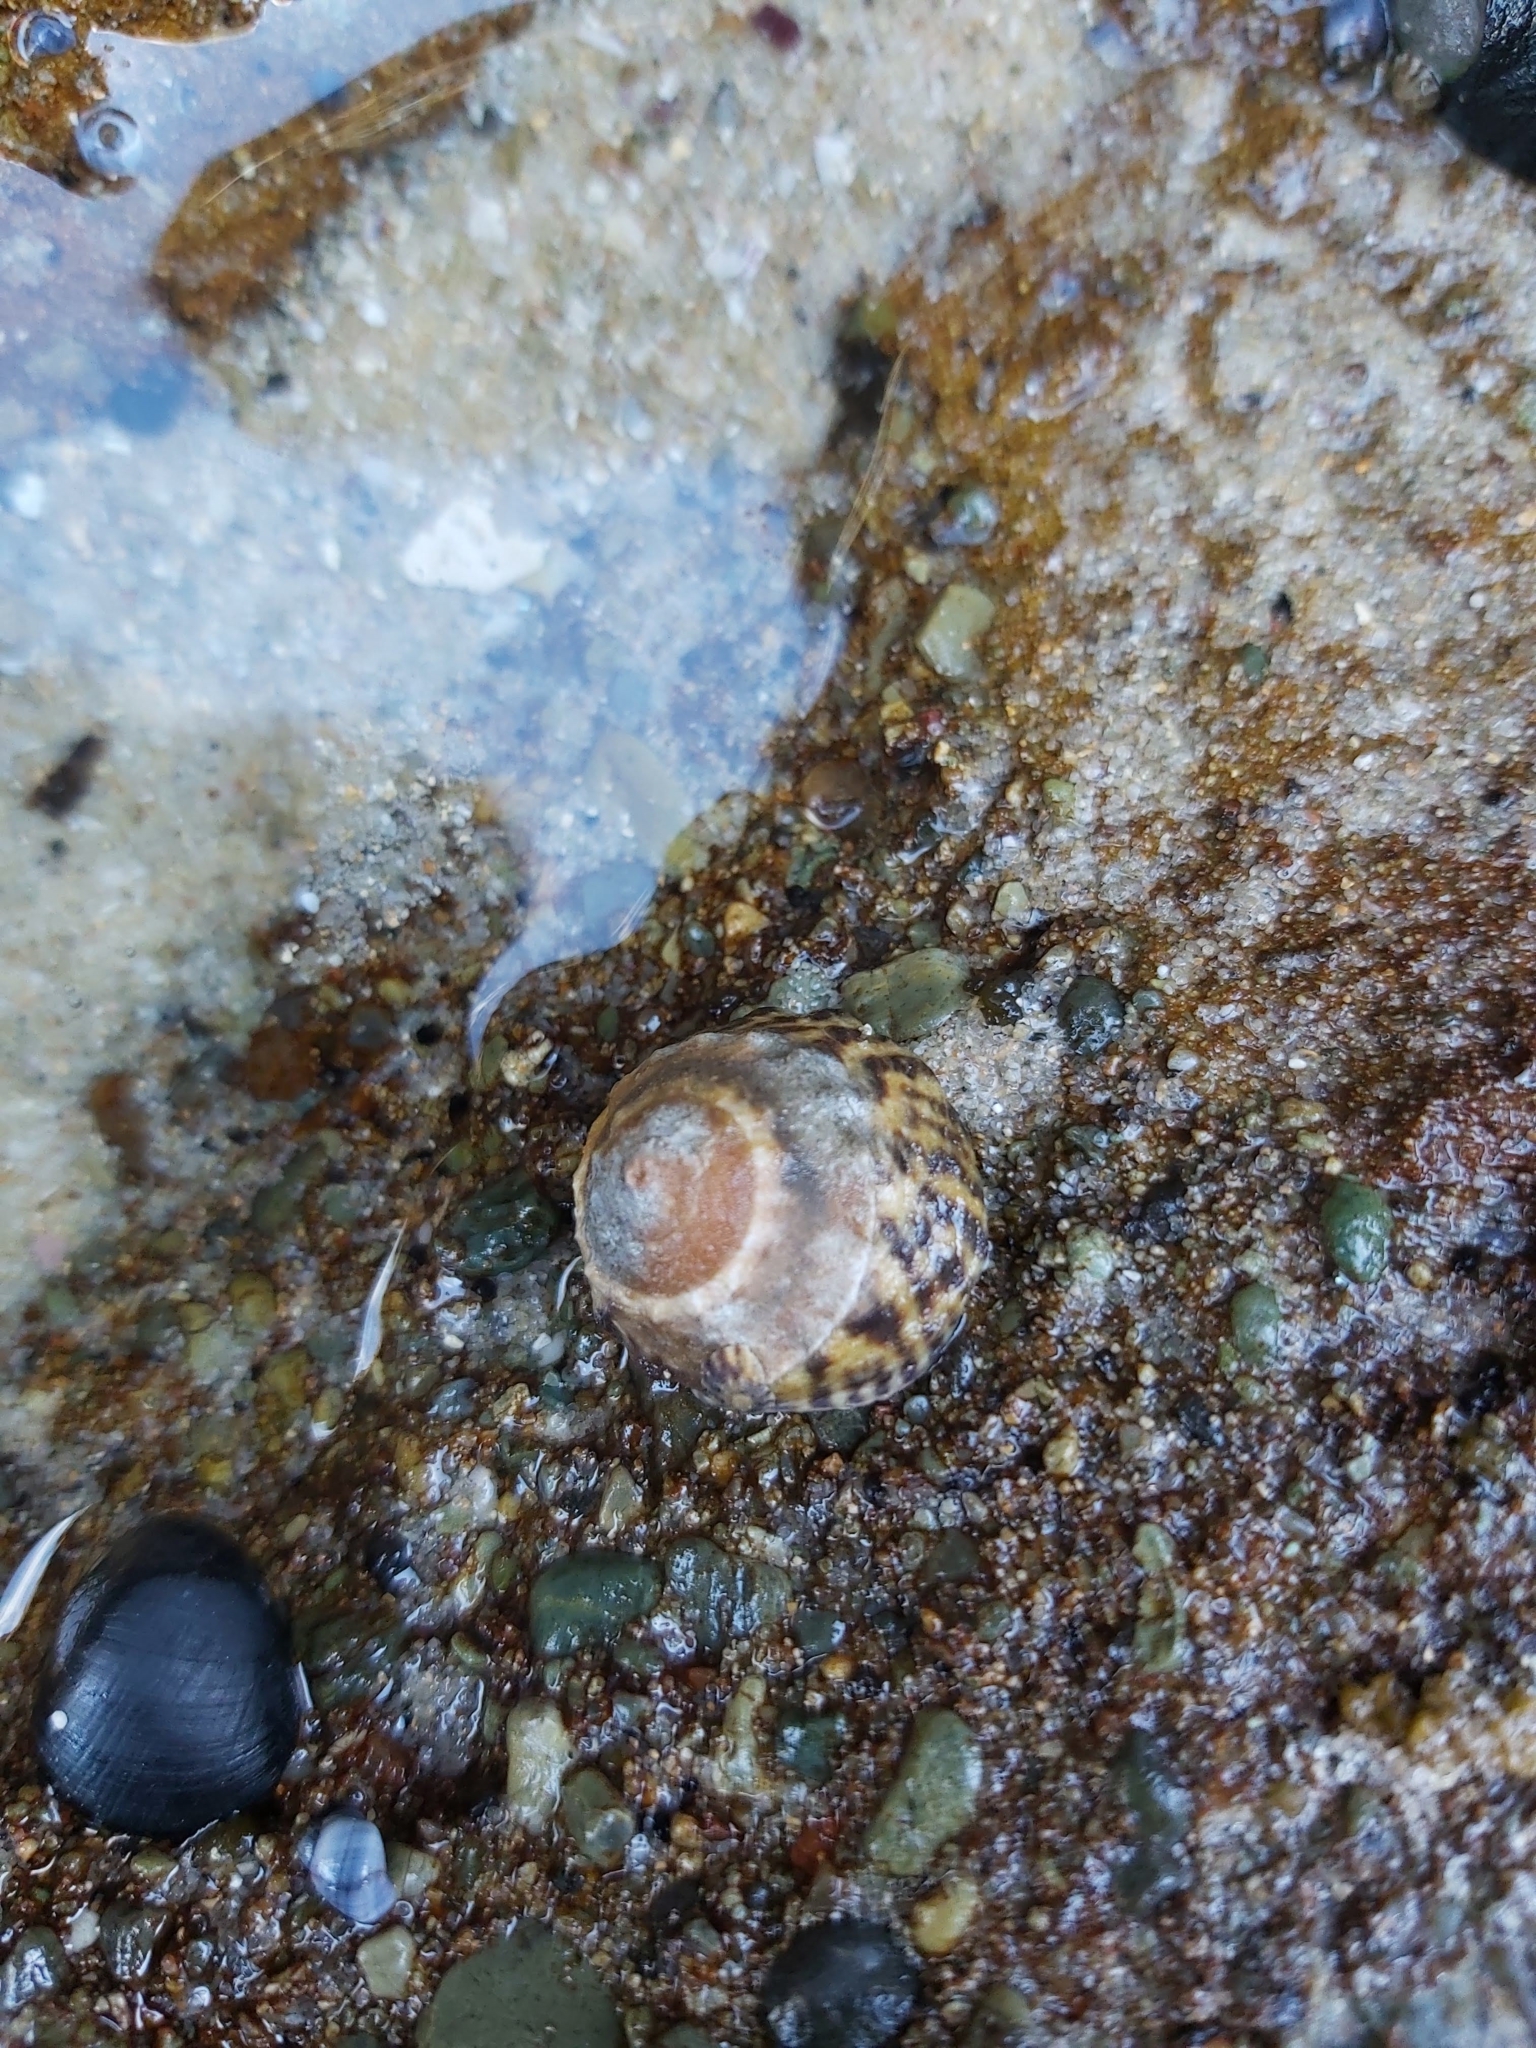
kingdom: Animalia
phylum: Mollusca
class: Gastropoda
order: Littorinimorpha
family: Littorinidae
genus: Bembicium
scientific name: Bembicium nanum
